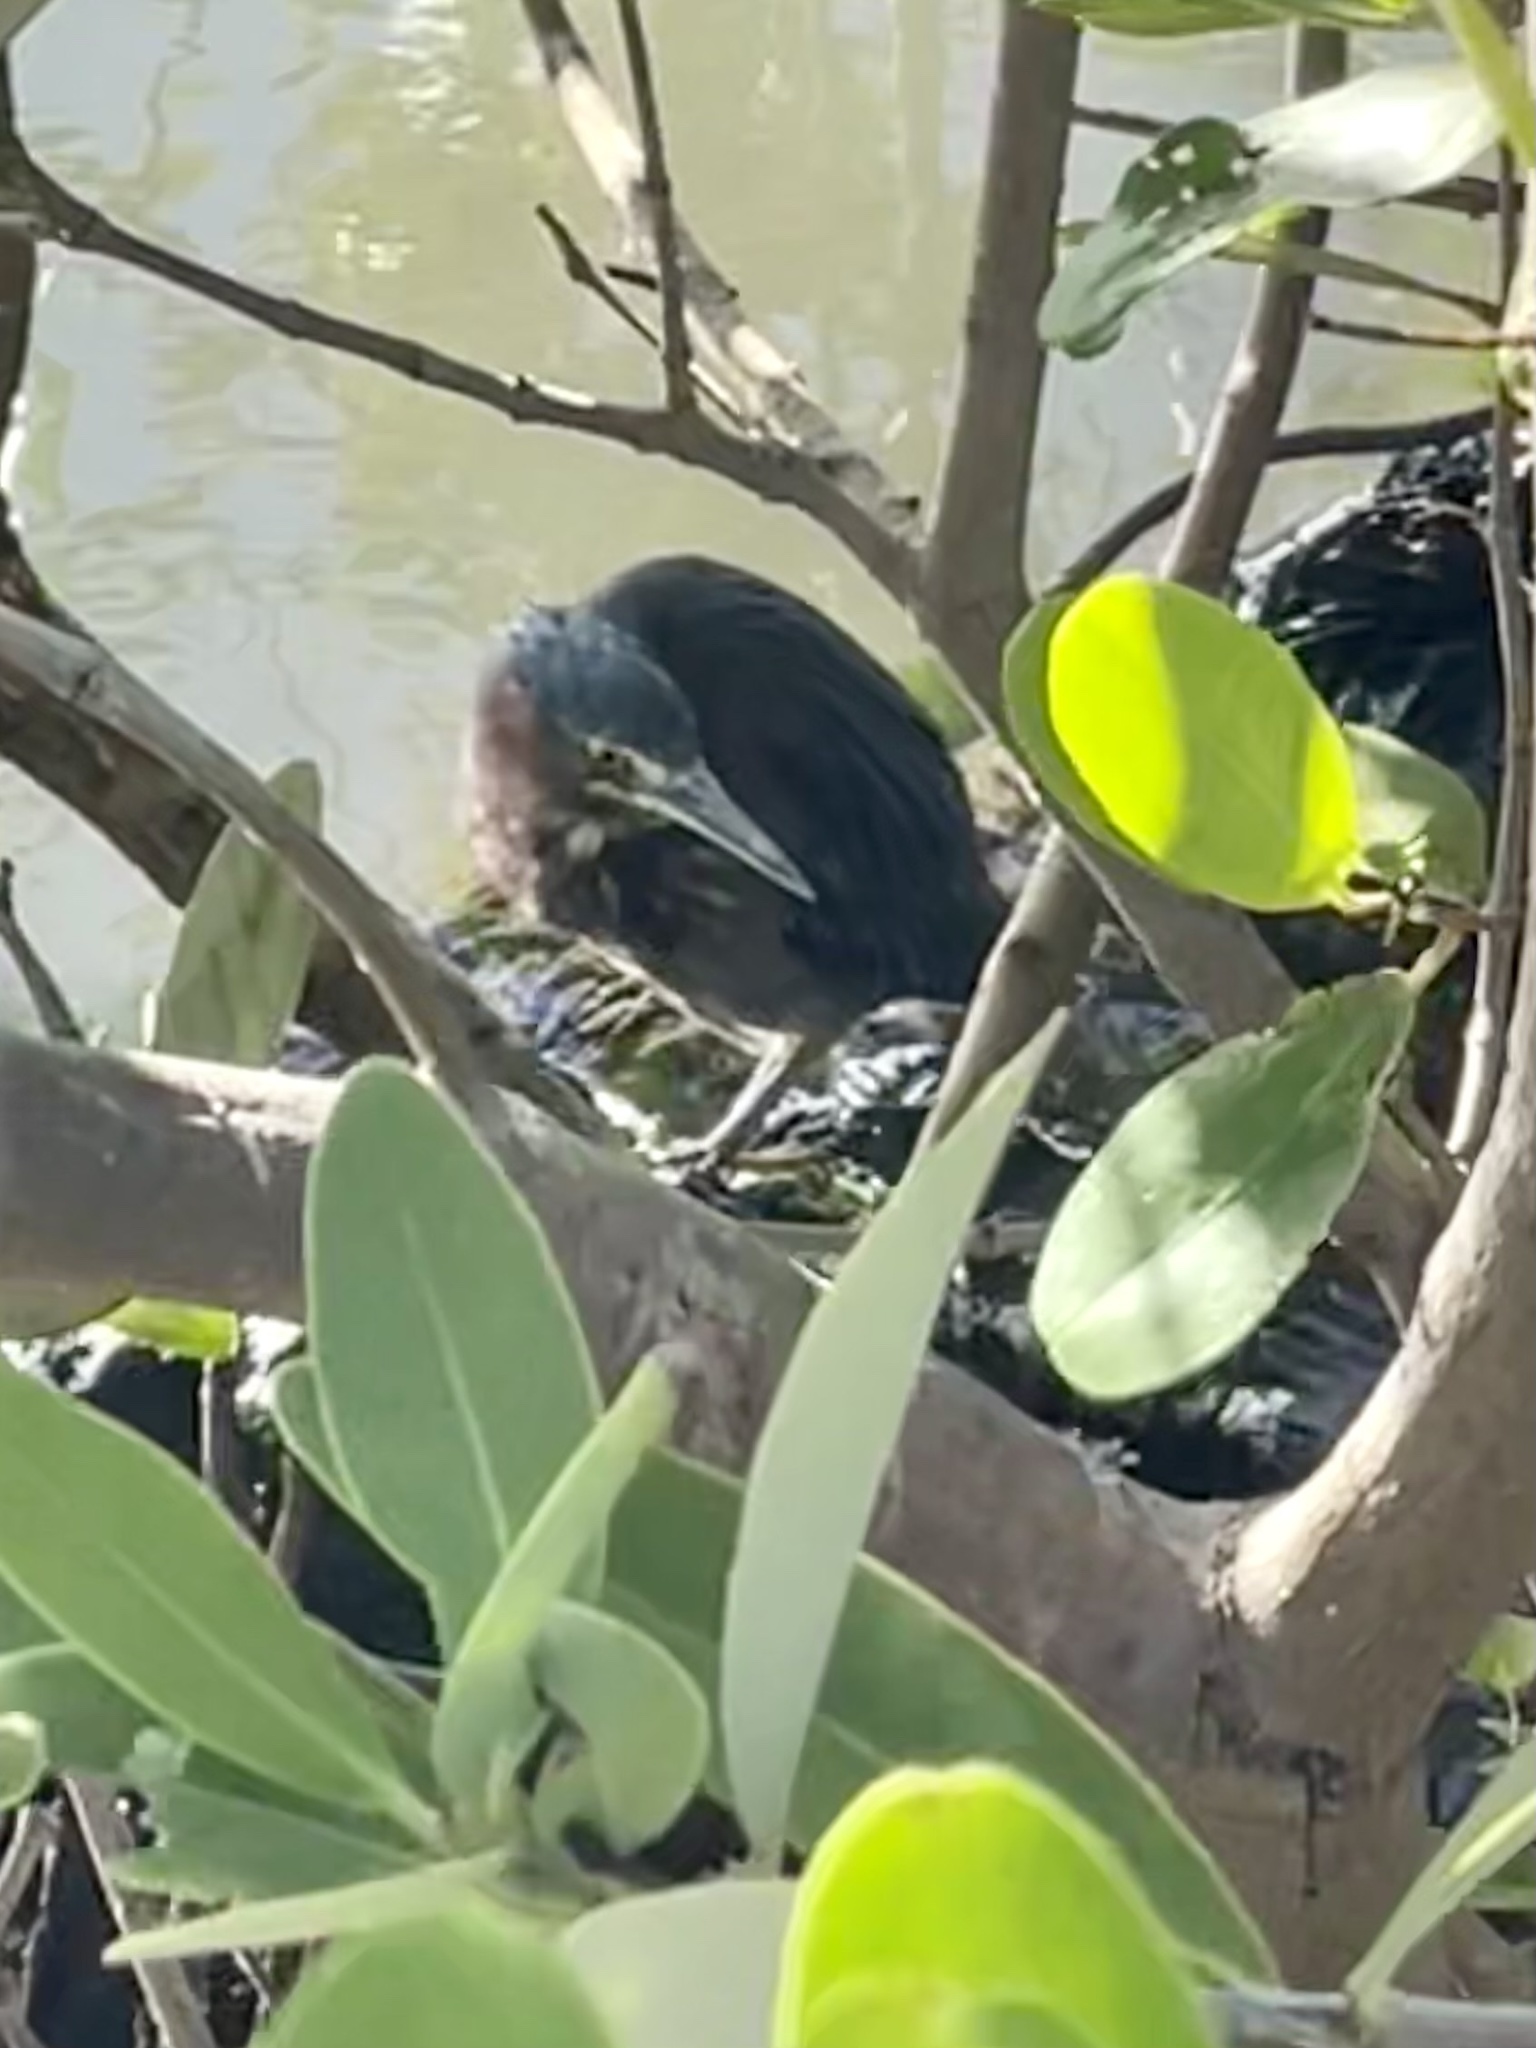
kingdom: Animalia
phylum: Chordata
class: Aves
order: Pelecaniformes
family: Ardeidae
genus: Butorides
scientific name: Butorides virescens
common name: Green heron
